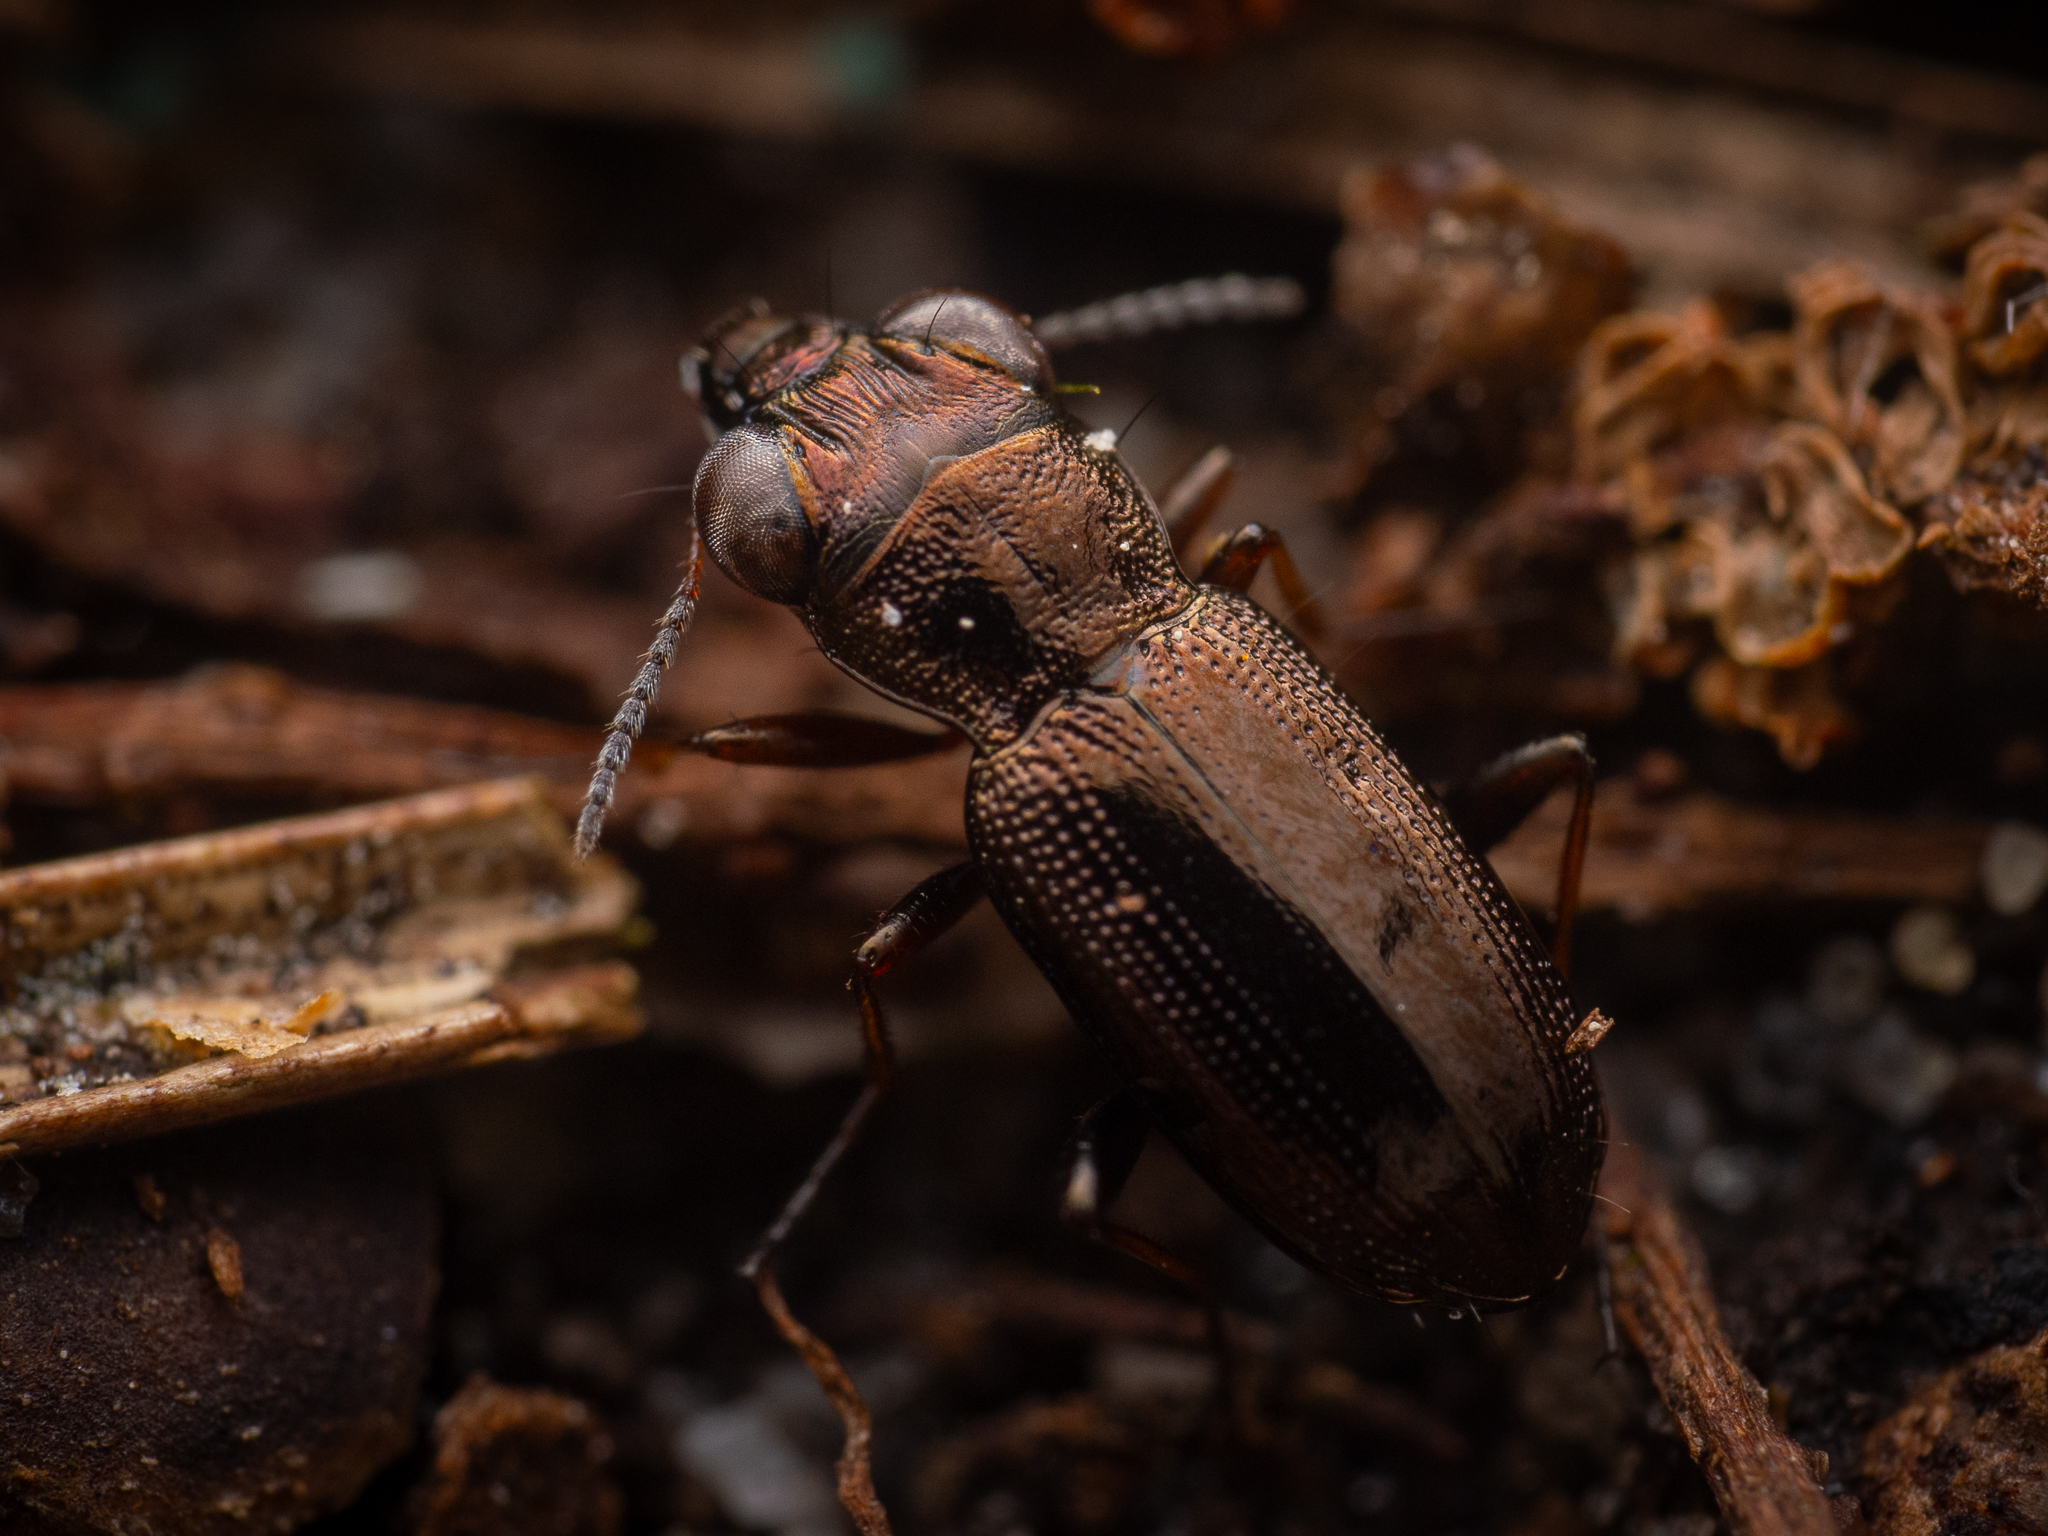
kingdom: Animalia
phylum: Arthropoda
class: Insecta
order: Coleoptera
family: Carabidae
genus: Notiophilus
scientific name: Notiophilus rufipes
